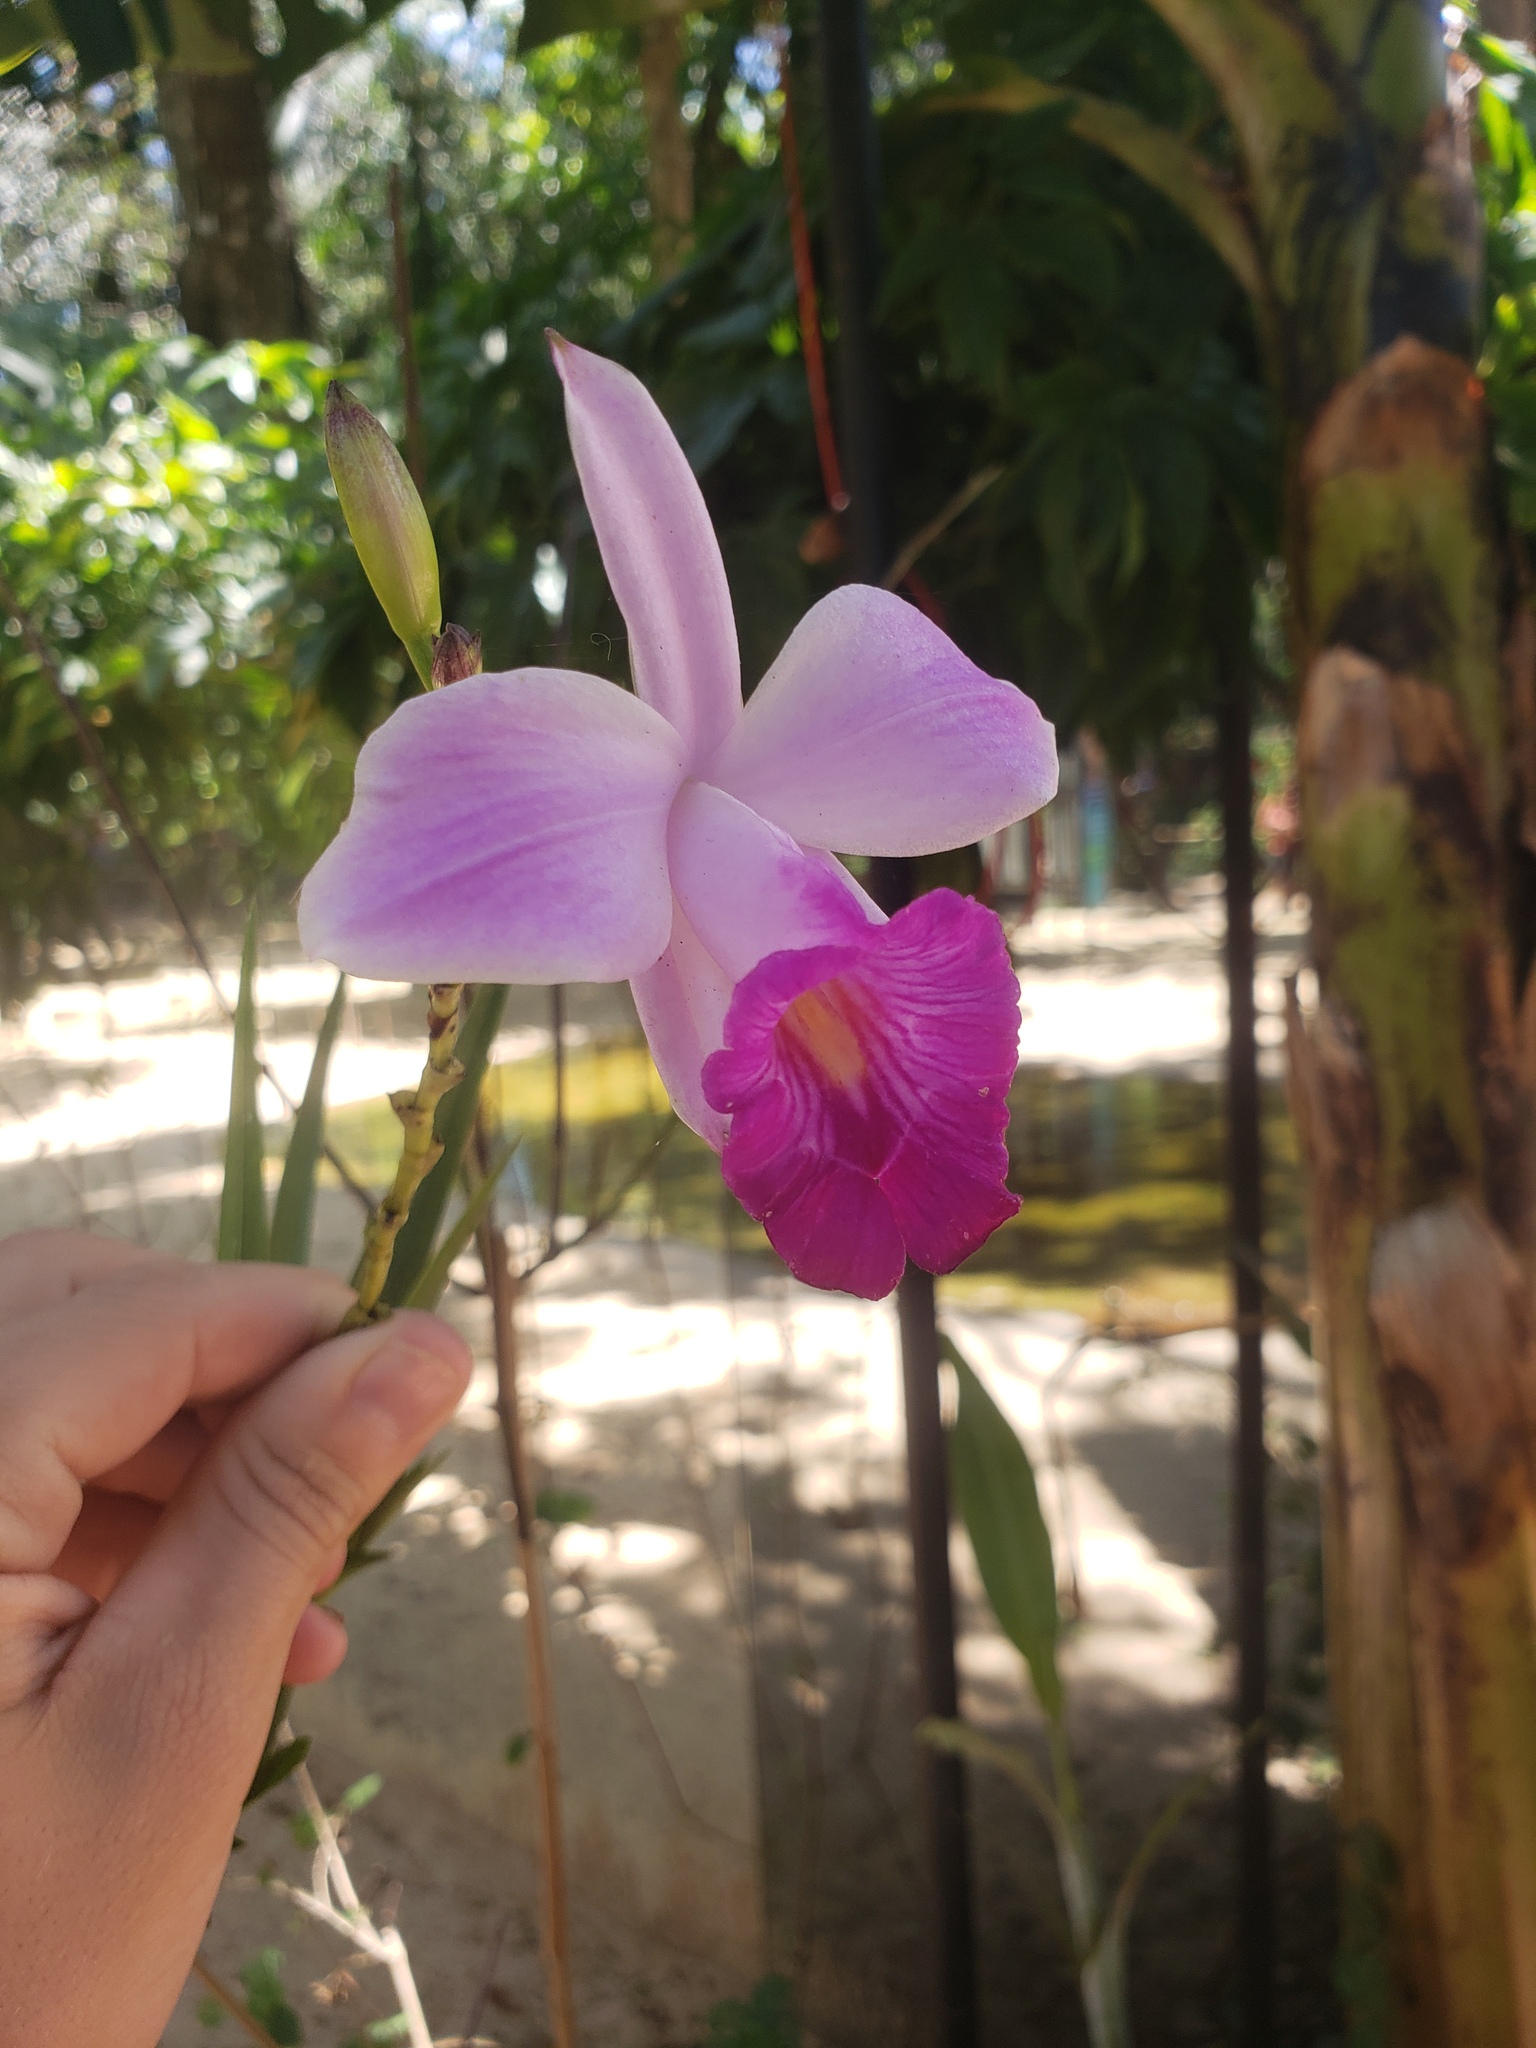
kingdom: Plantae
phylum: Tracheophyta
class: Liliopsida
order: Asparagales
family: Orchidaceae
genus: Arundina
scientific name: Arundina graminifolia
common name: Bamboo orchid
